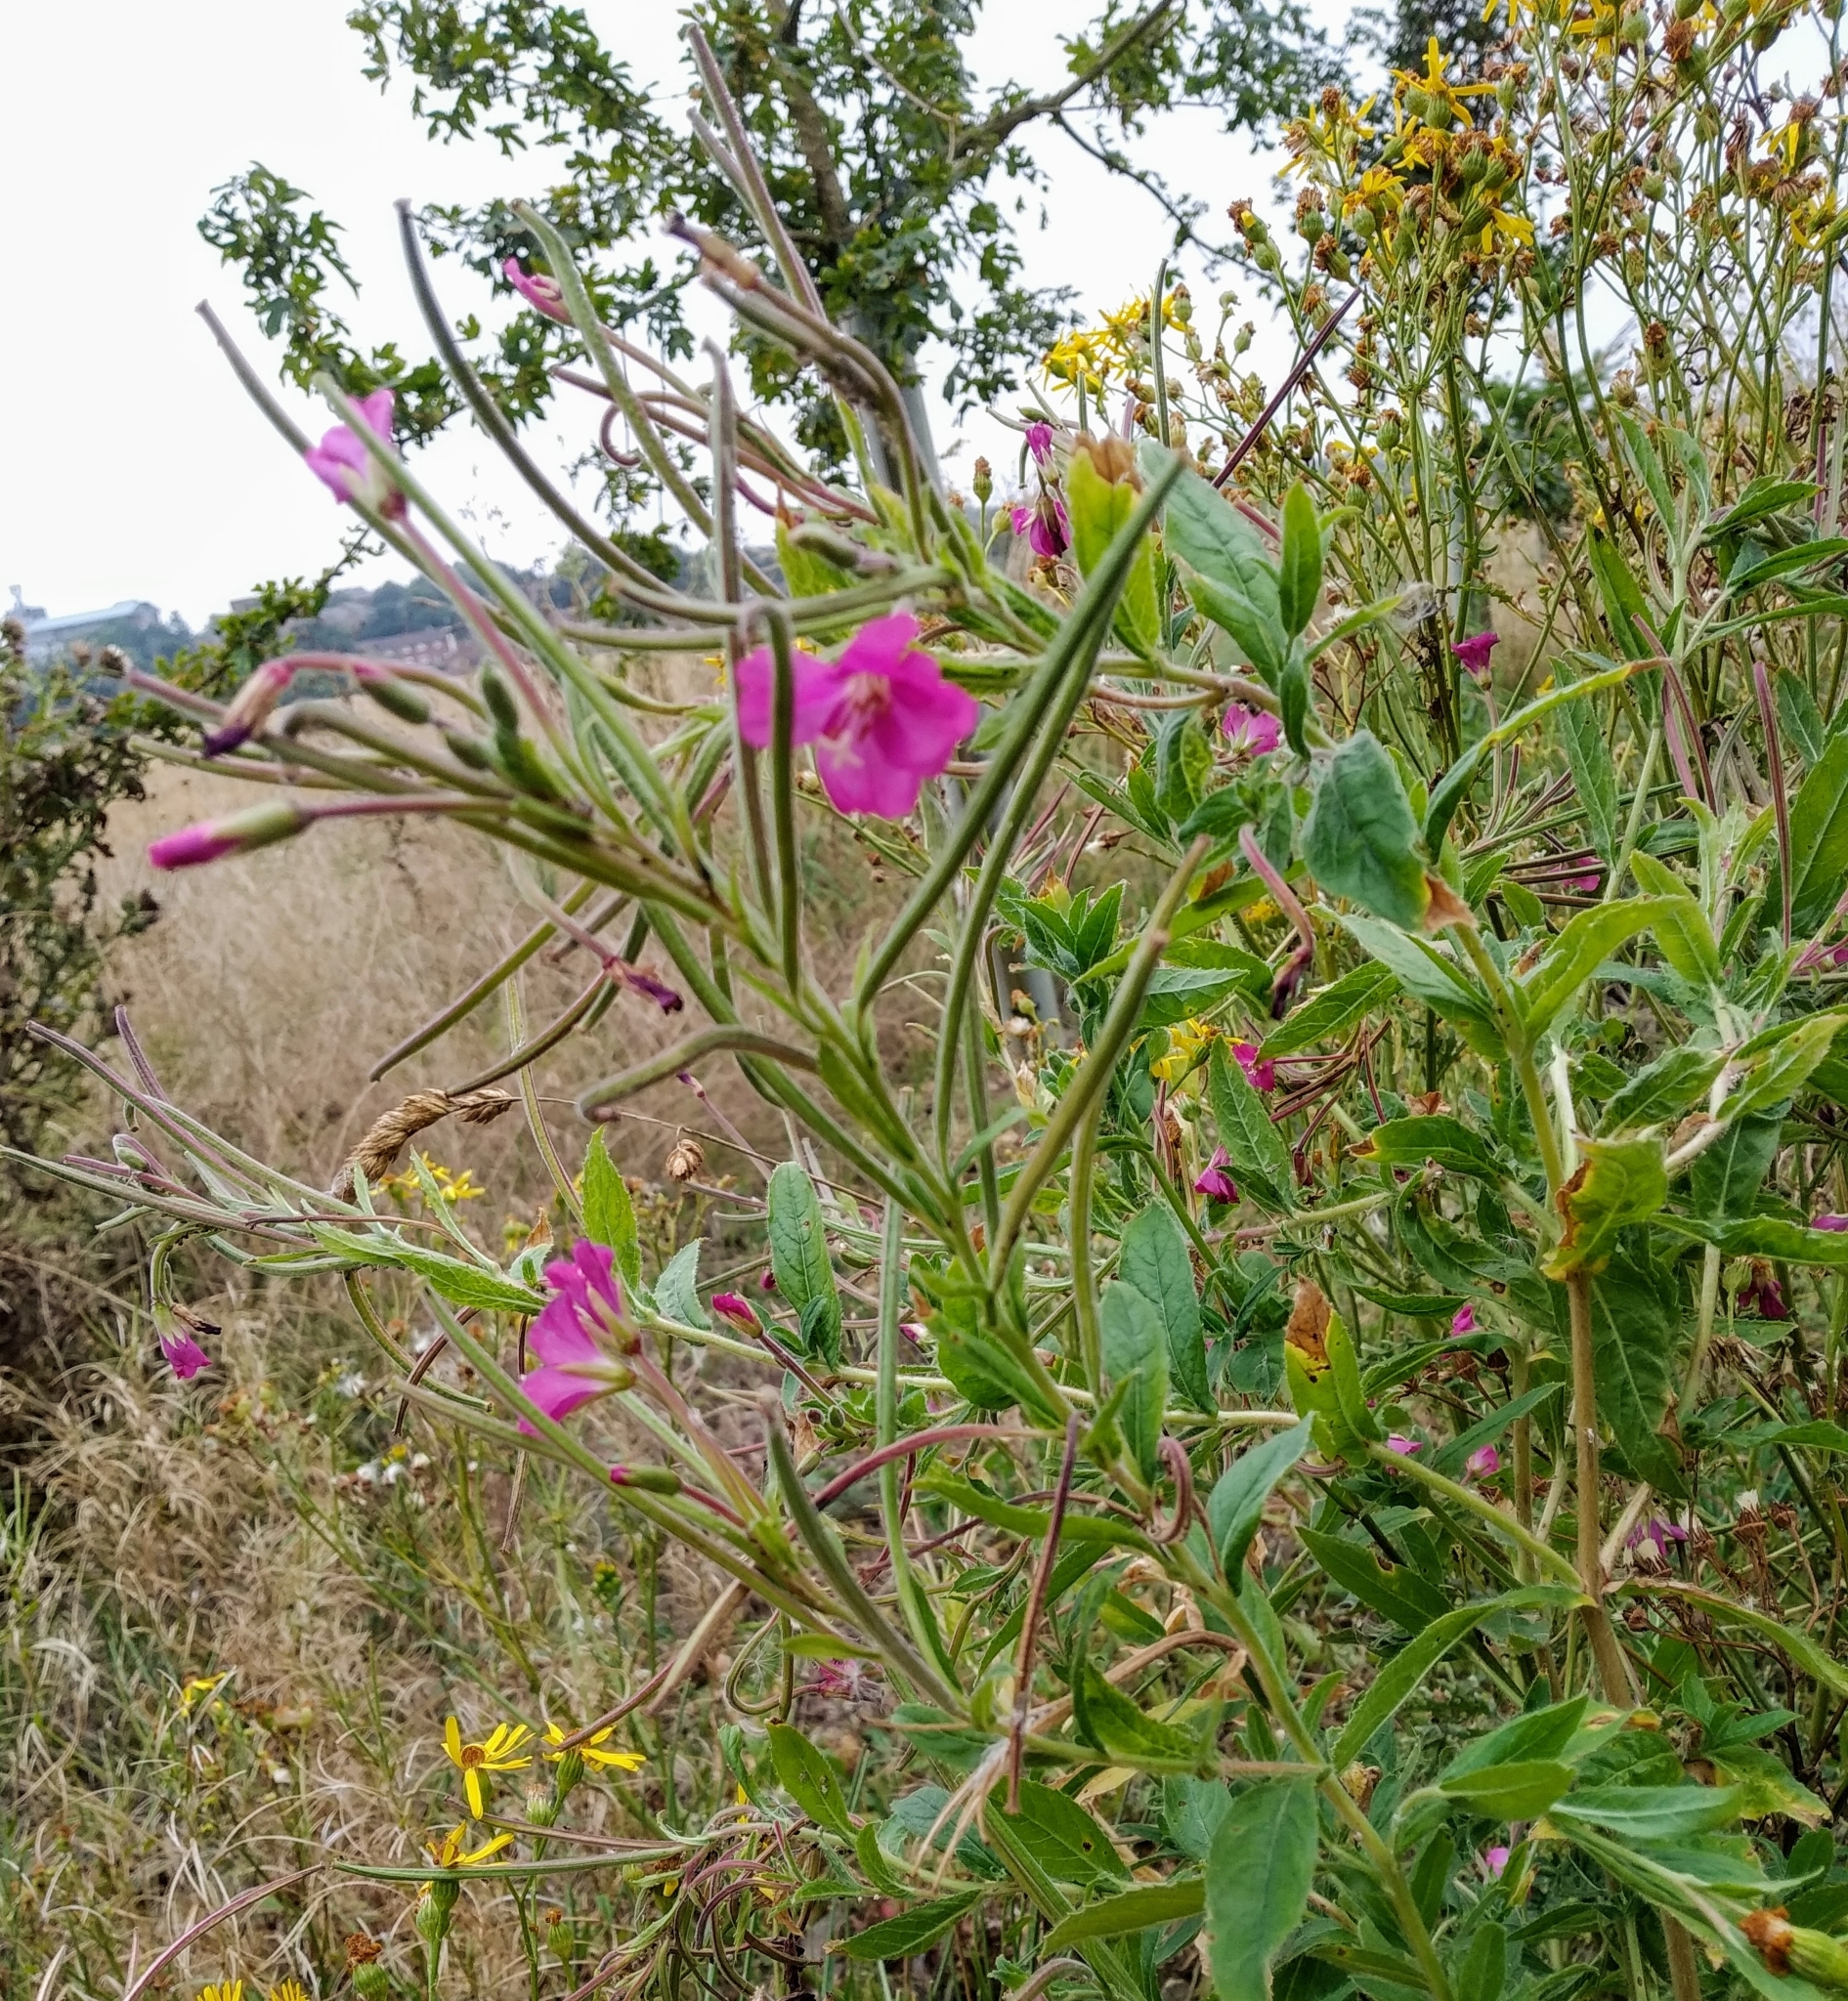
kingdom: Plantae
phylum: Tracheophyta
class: Magnoliopsida
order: Myrtales
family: Onagraceae
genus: Epilobium
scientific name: Epilobium hirsutum
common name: Great willowherb
